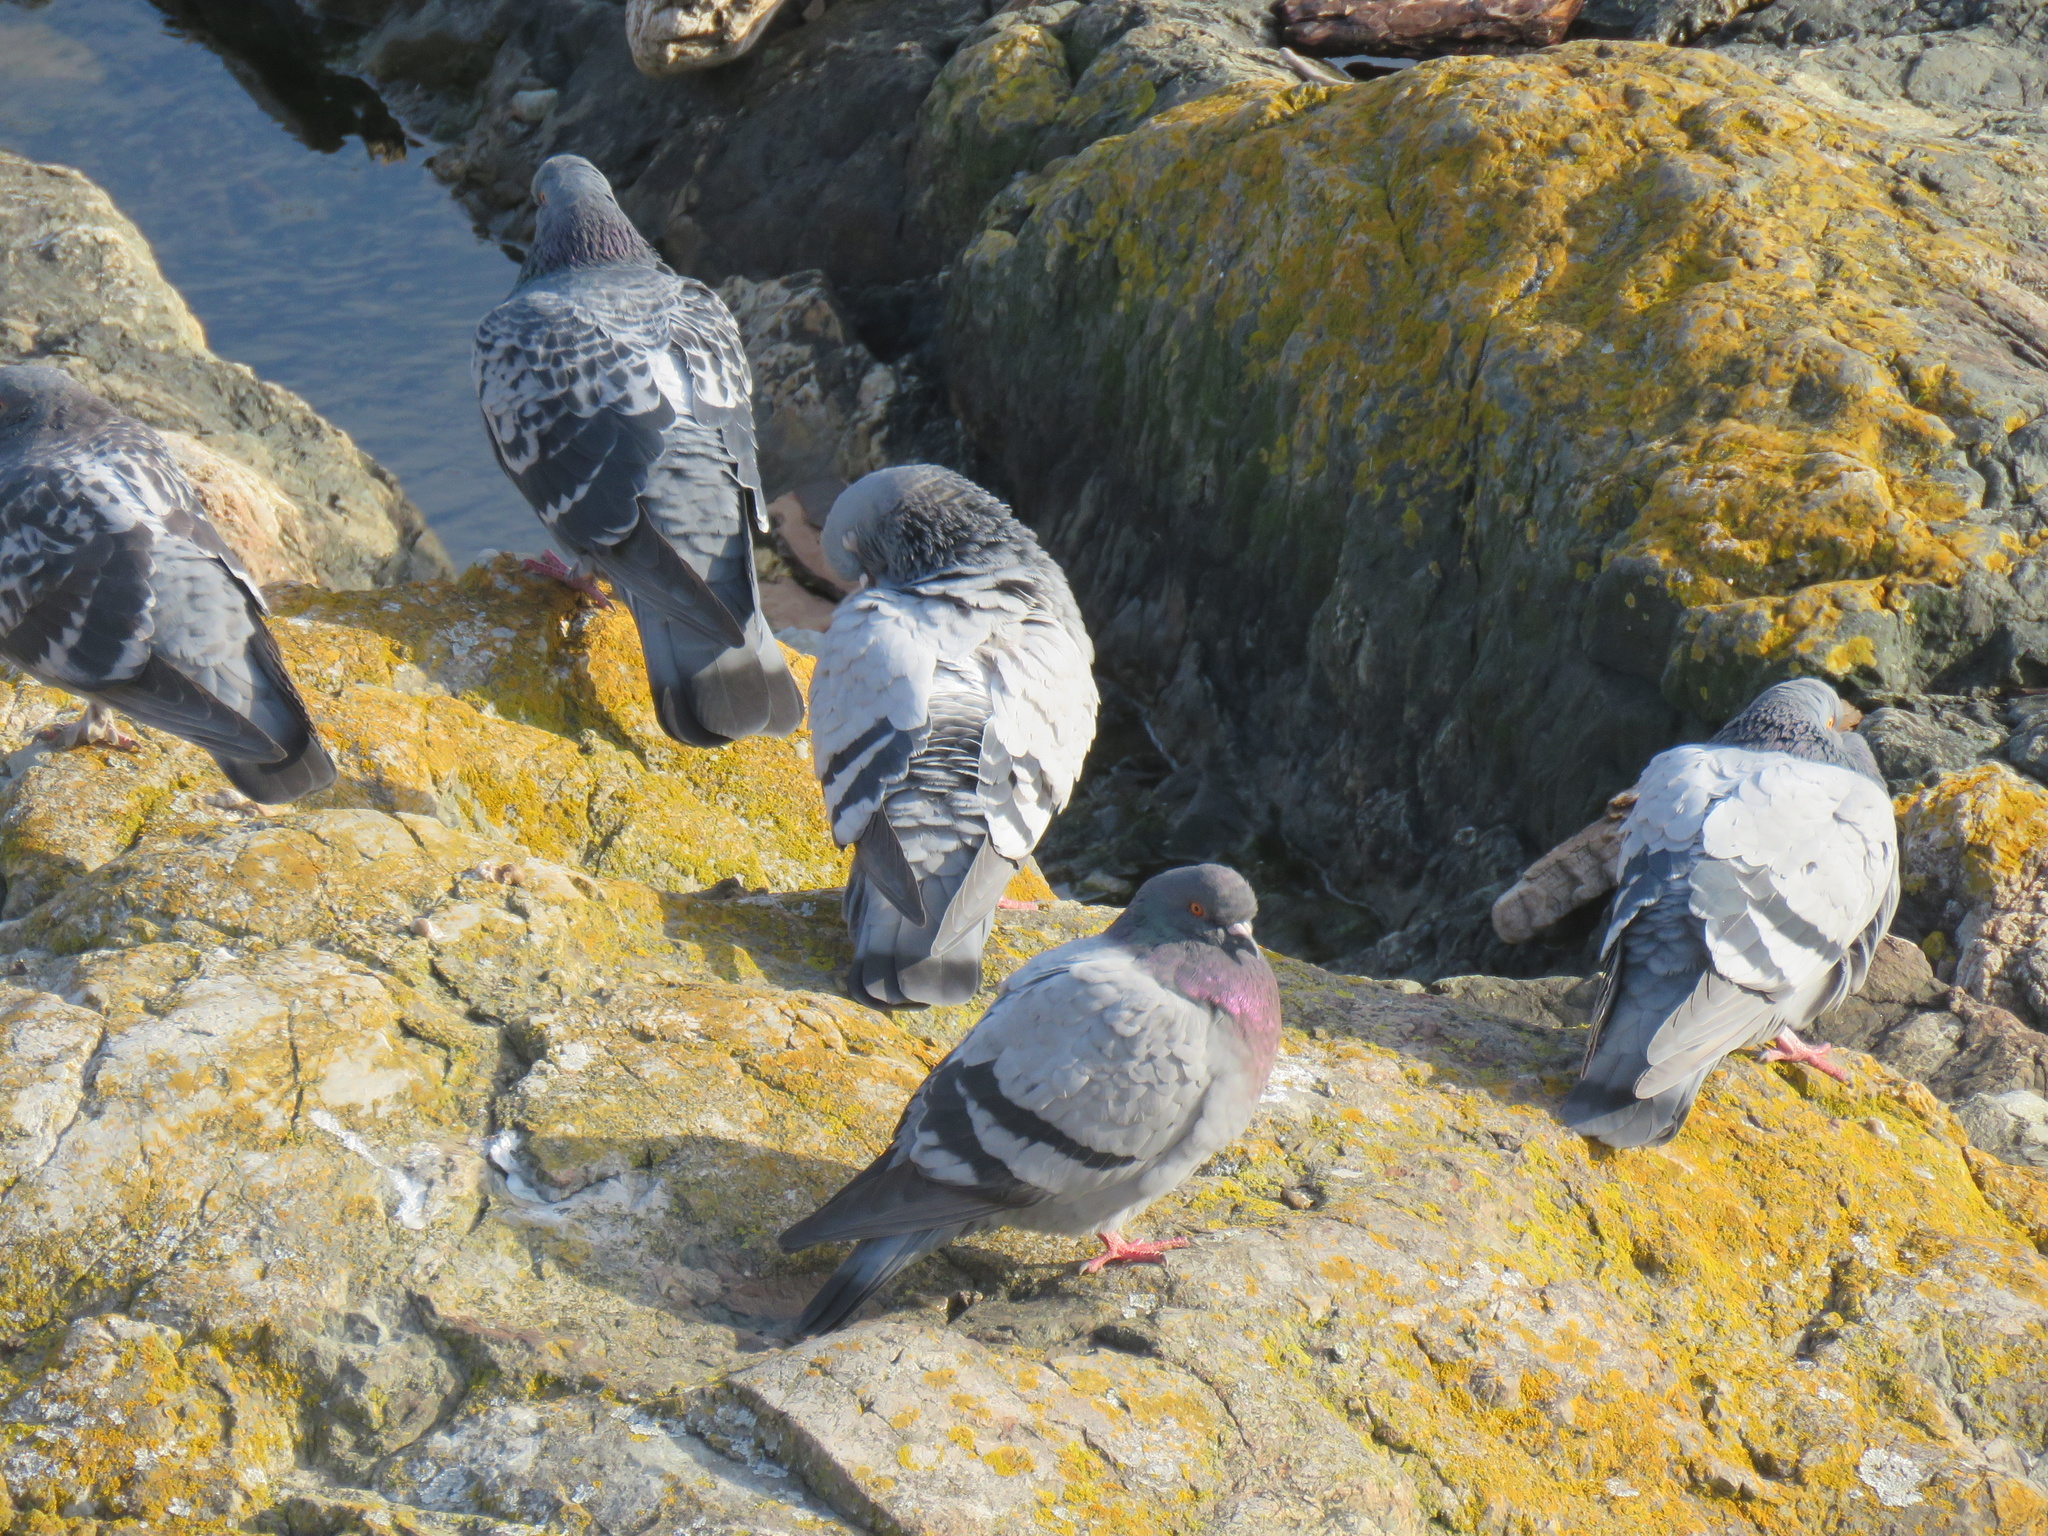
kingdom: Animalia
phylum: Chordata
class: Aves
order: Columbiformes
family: Columbidae
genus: Columba
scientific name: Columba livia
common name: Rock pigeon
